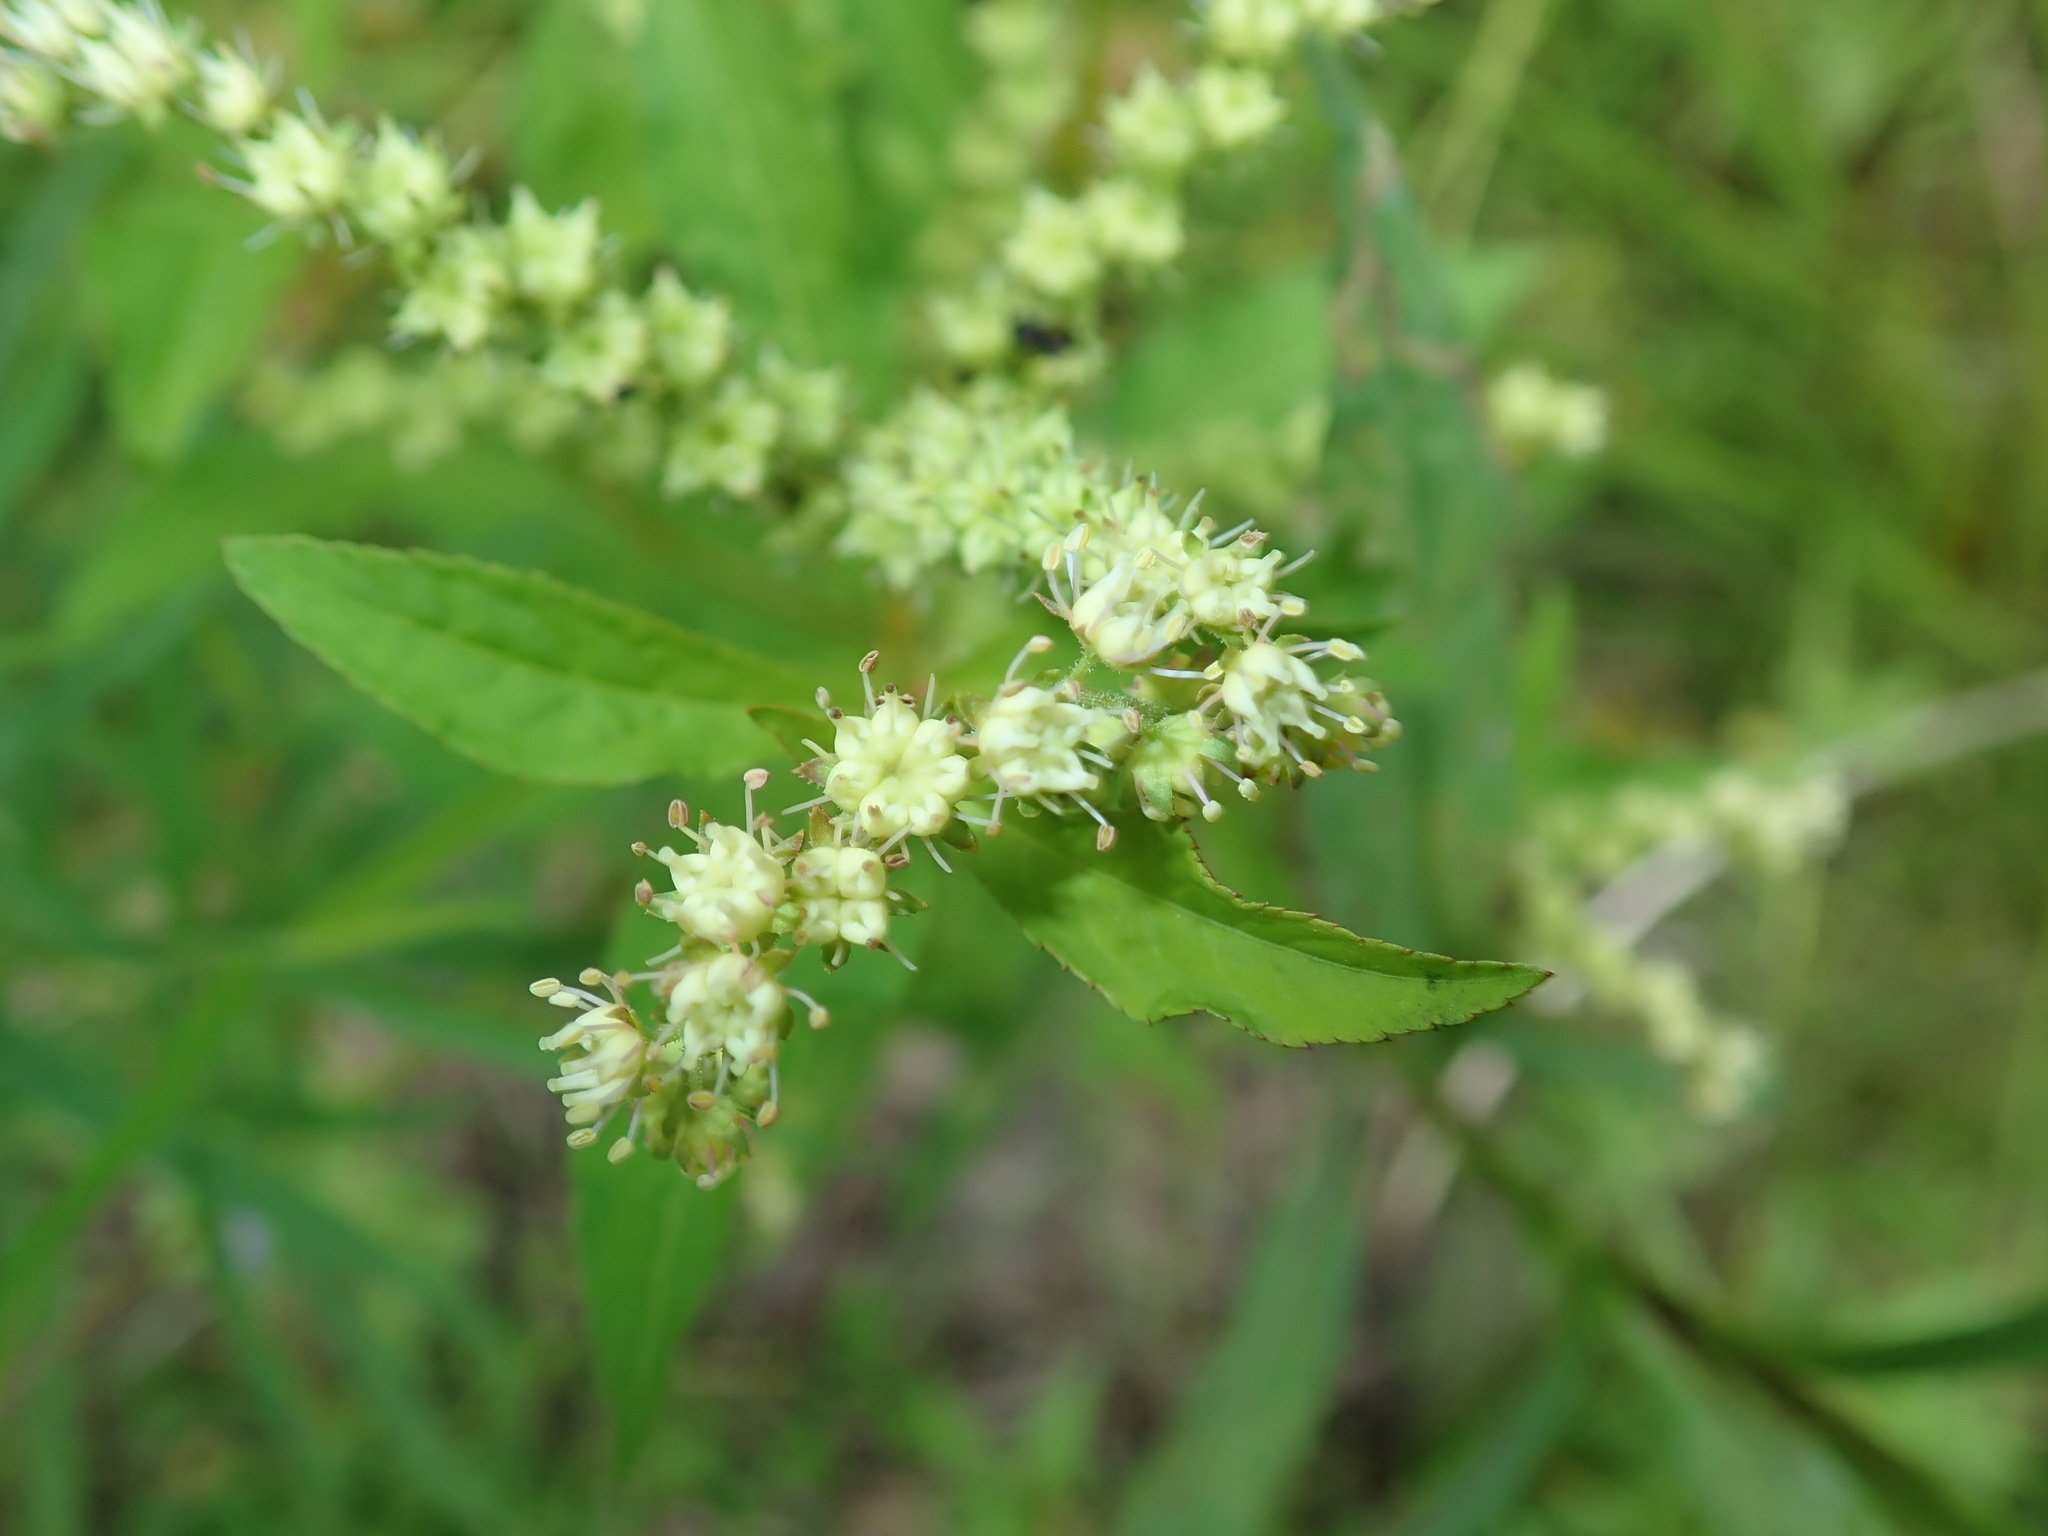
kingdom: Plantae
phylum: Tracheophyta
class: Magnoliopsida
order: Saxifragales
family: Penthoraceae
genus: Penthorum
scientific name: Penthorum sedoides
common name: Ditch stonecrop
